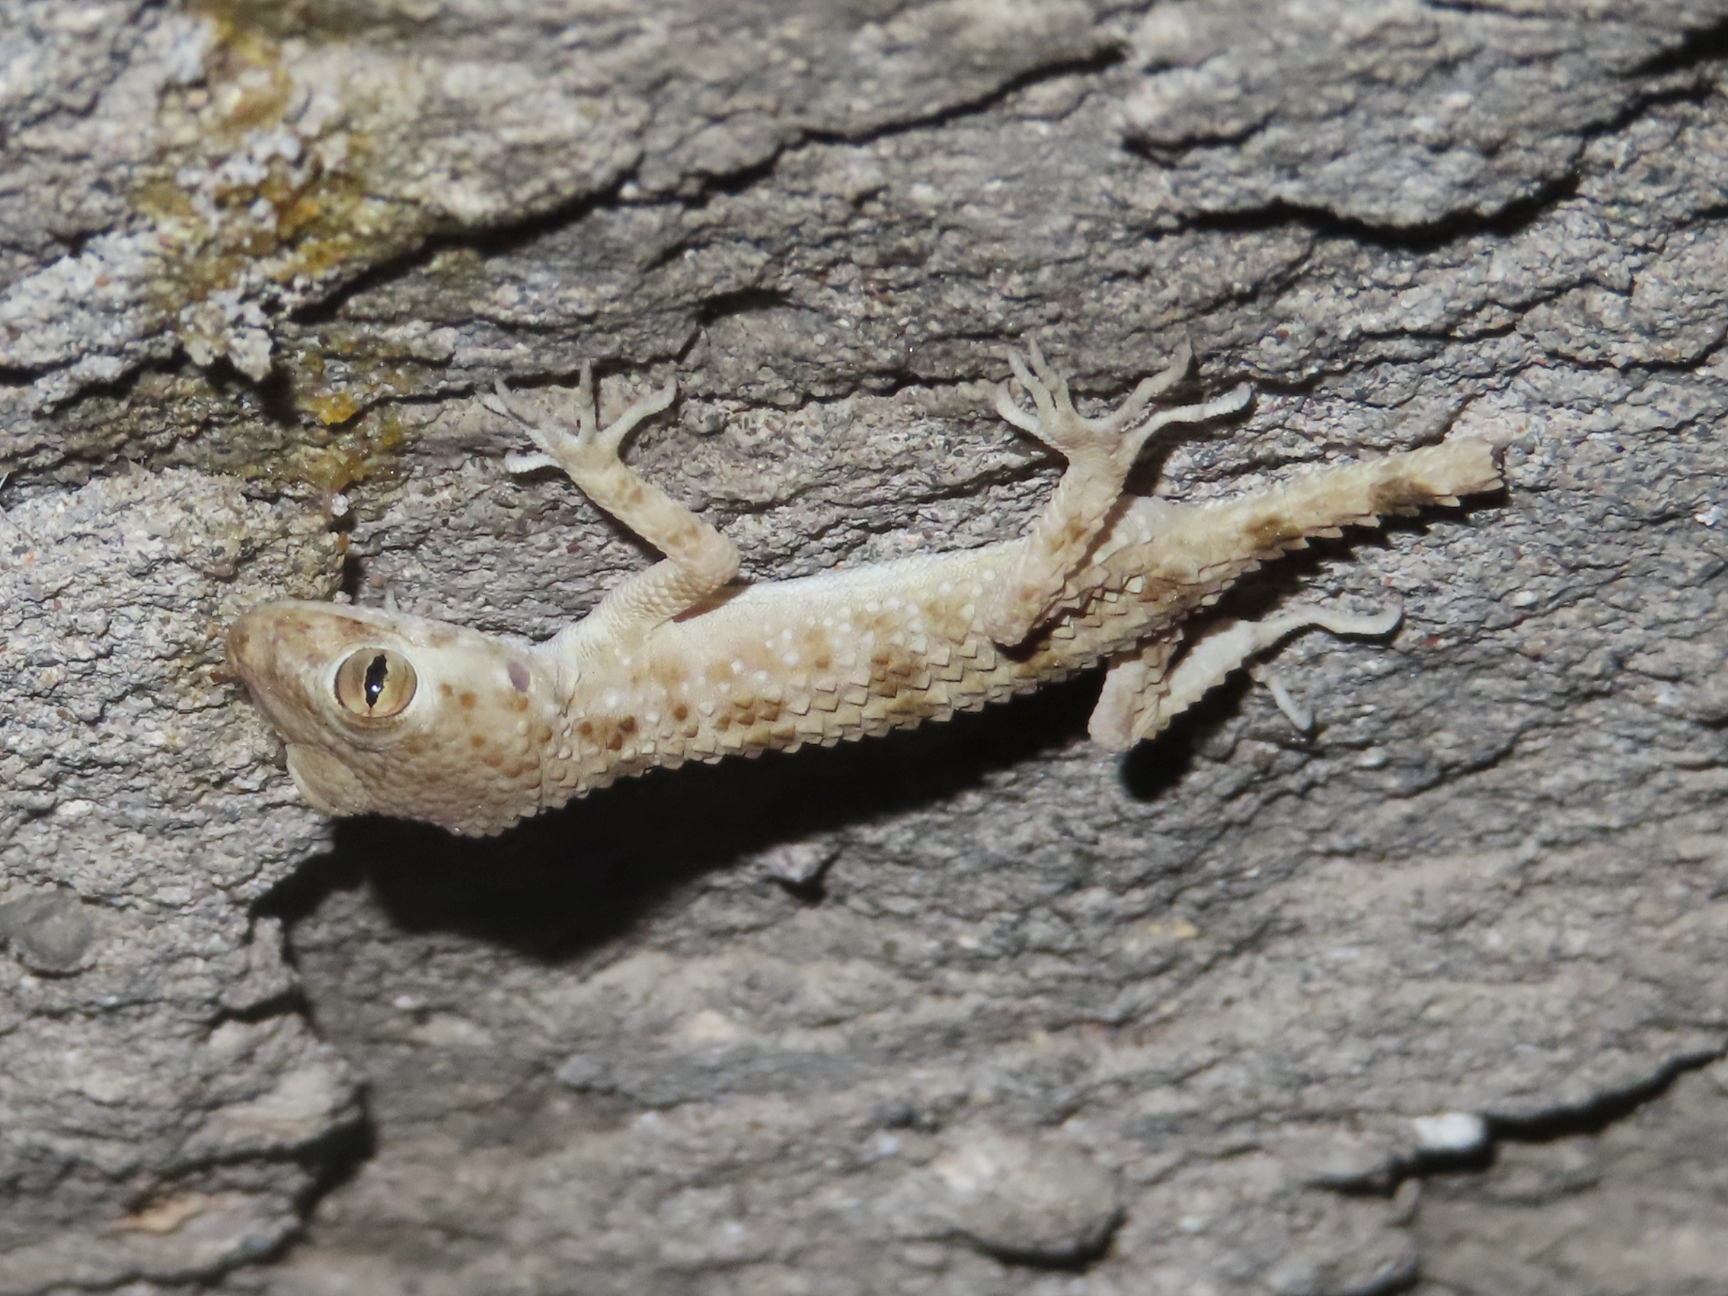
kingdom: Animalia
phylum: Chordata
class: Squamata
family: Gekkonidae
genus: Tenuidactylus
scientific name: Tenuidactylus caspius
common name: Caspian bent-toed gecko
